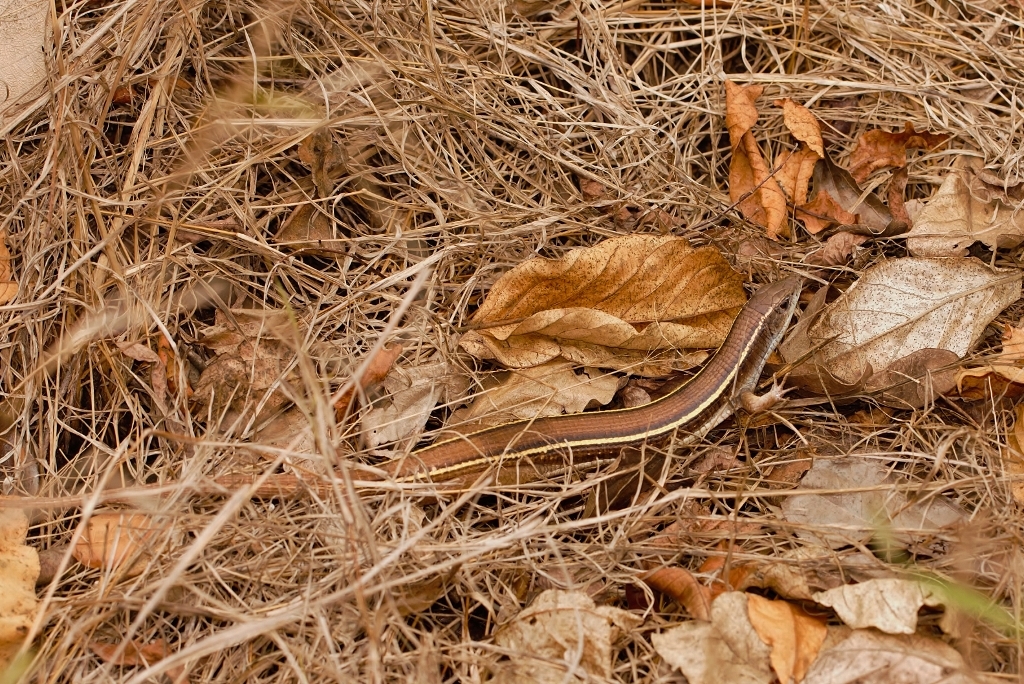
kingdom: Animalia
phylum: Chordata
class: Squamata
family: Gerrhosauridae
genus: Gerrhosaurus
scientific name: Gerrhosaurus flavigularis
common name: Yellow-throated plated lizard
